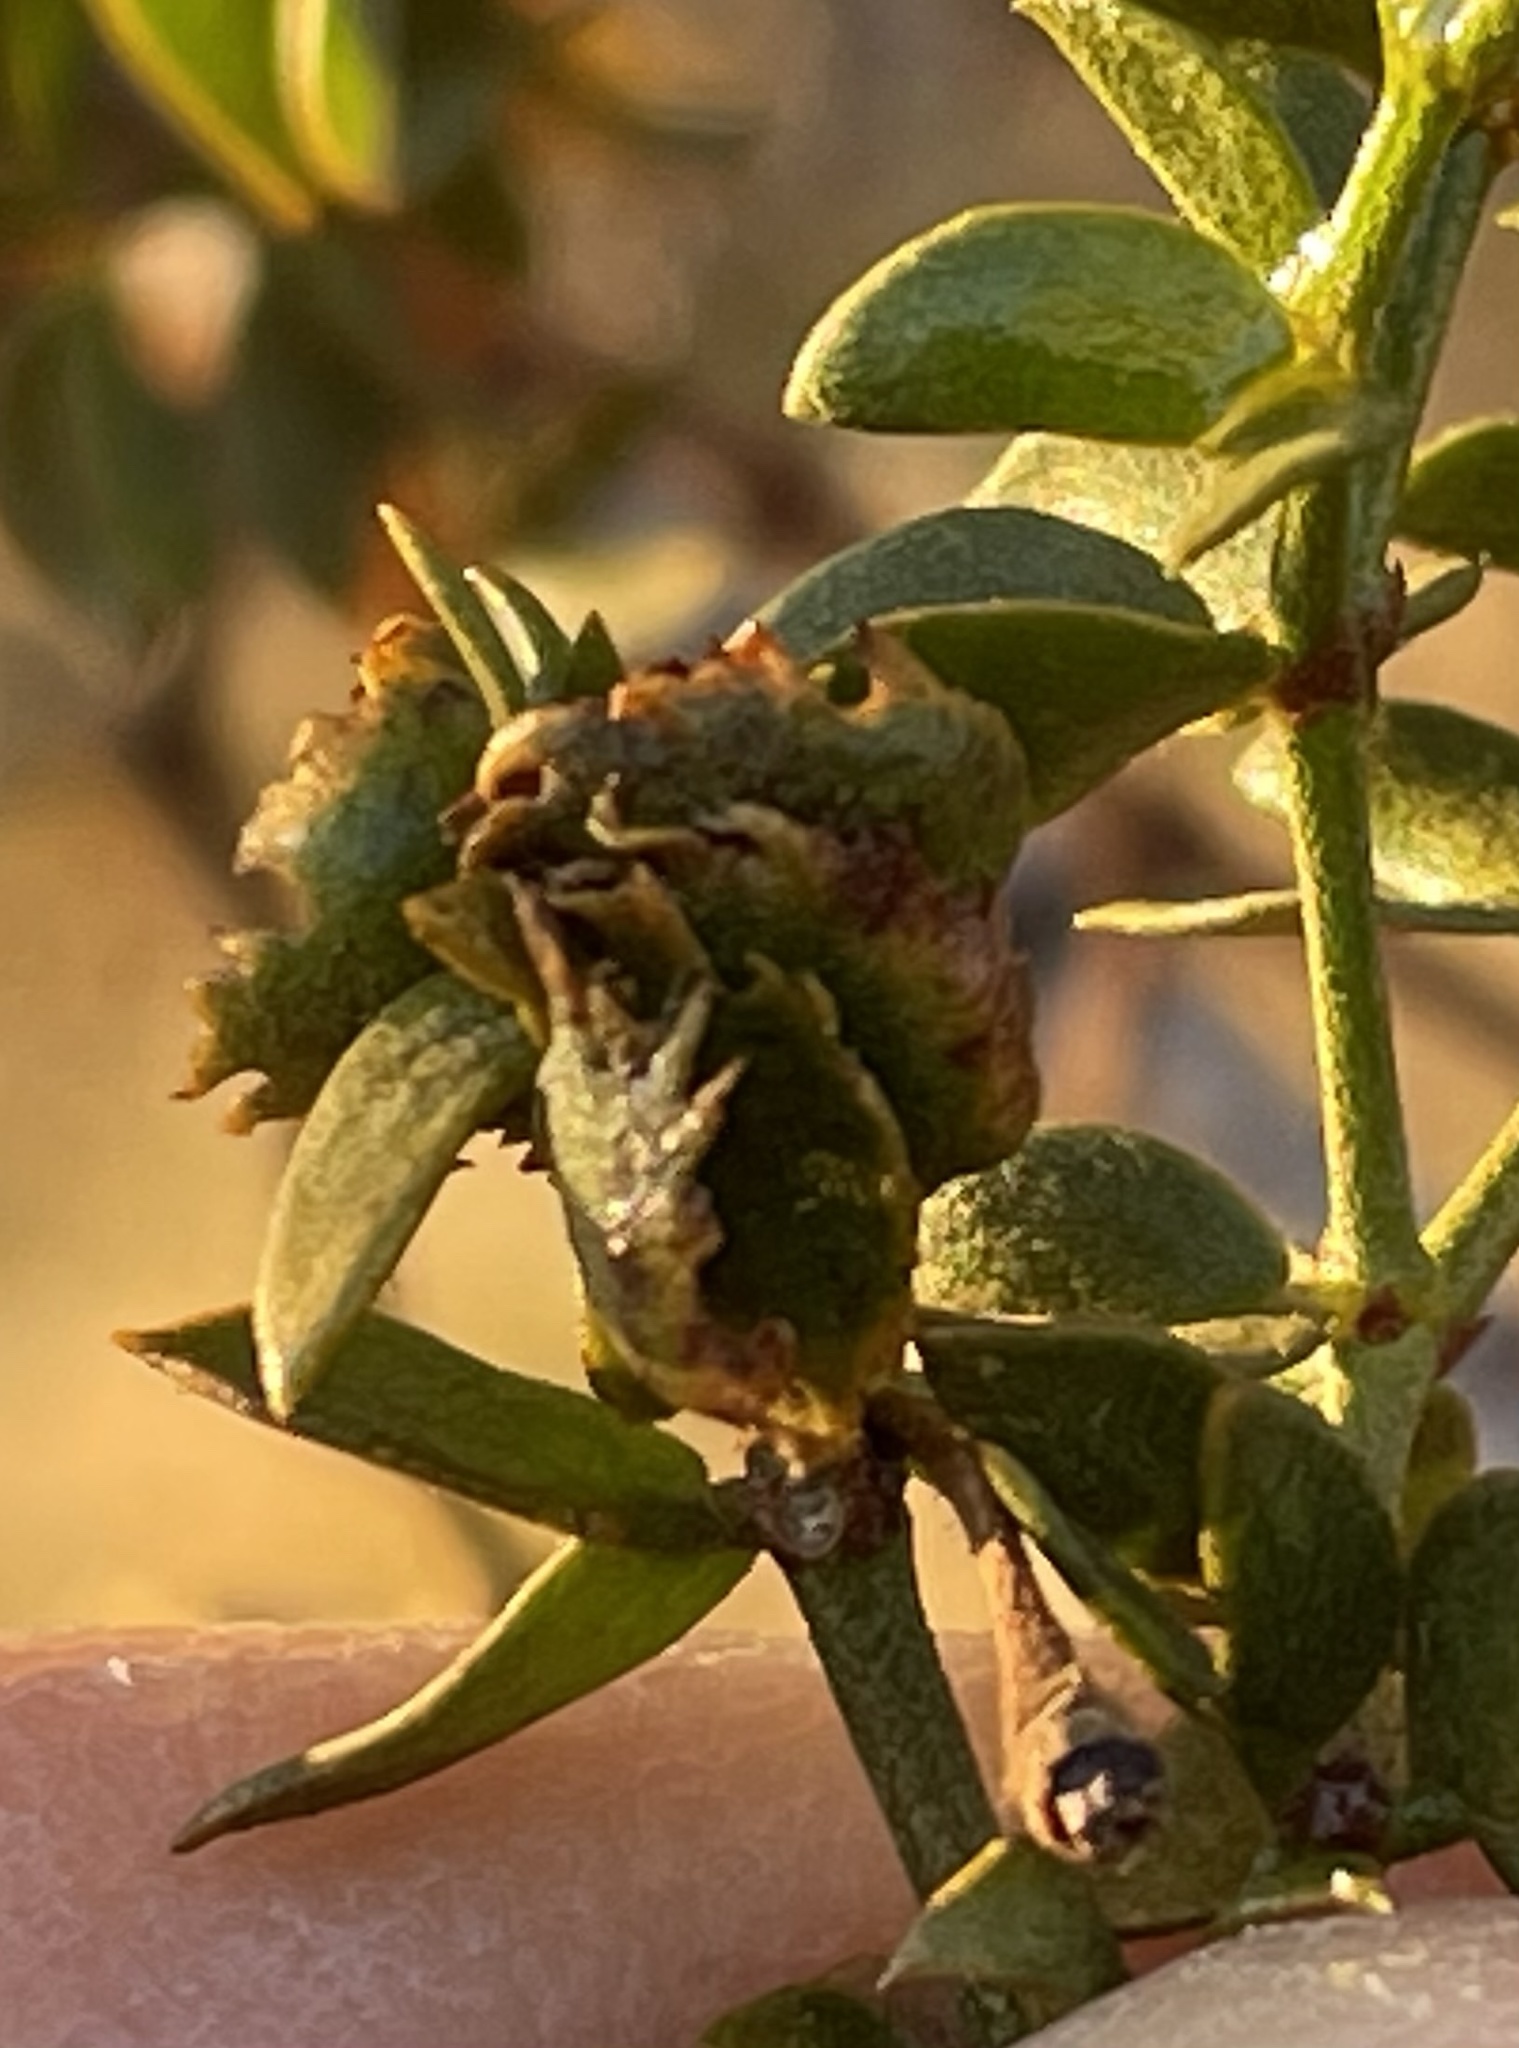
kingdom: Animalia
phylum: Arthropoda
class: Insecta
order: Diptera
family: Cecidomyiidae
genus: Asphondylia
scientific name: Asphondylia digitata
